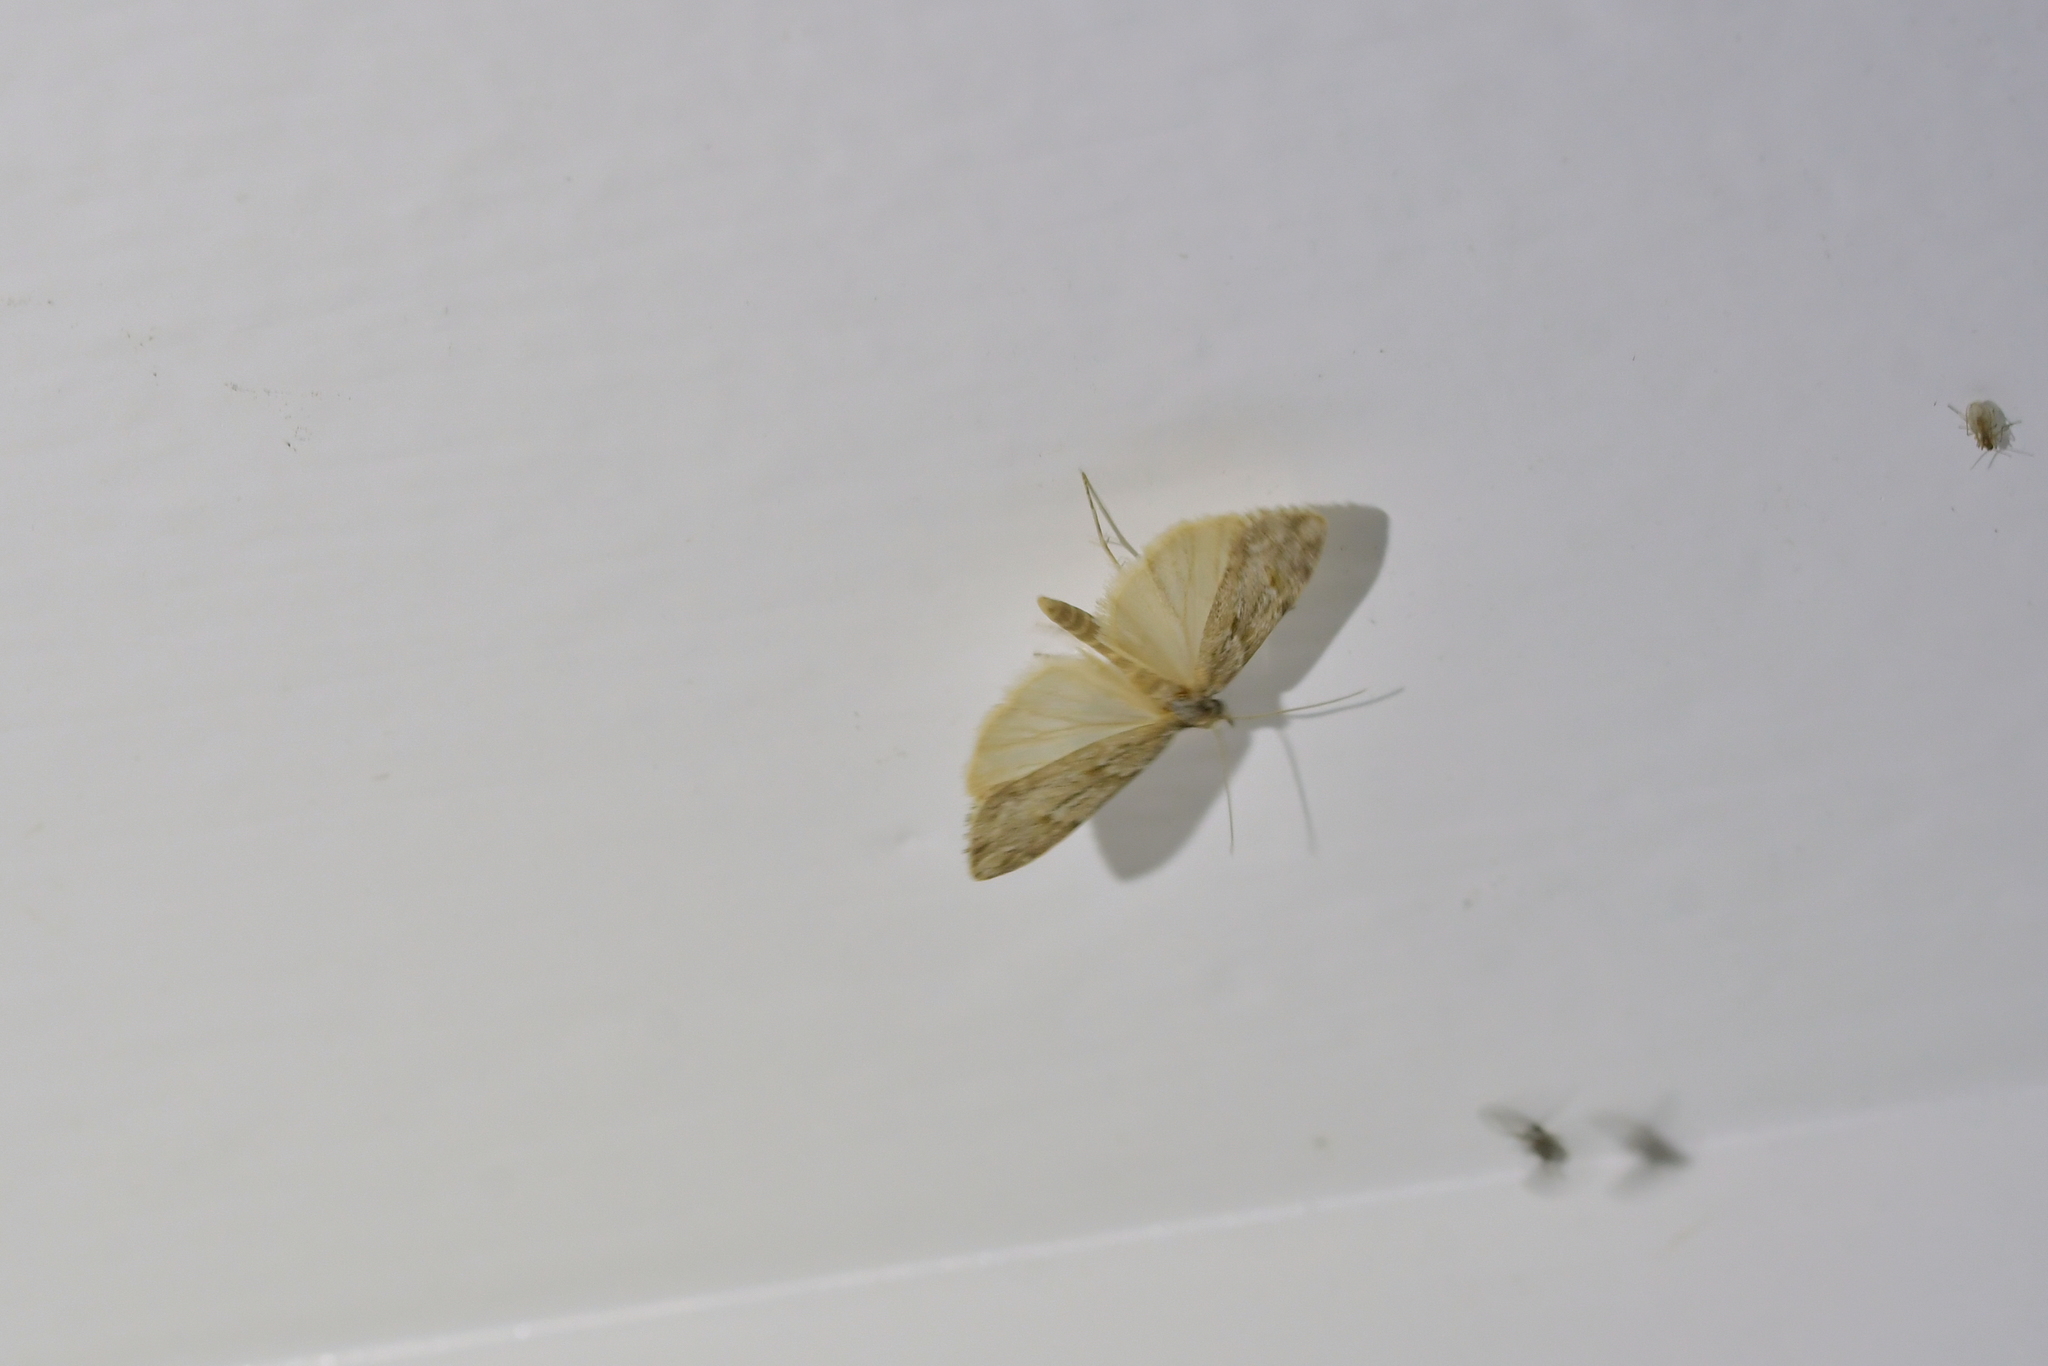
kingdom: Animalia
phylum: Arthropoda
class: Insecta
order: Lepidoptera
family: Crambidae
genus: Scoparia
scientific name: Scoparia chalicodes
